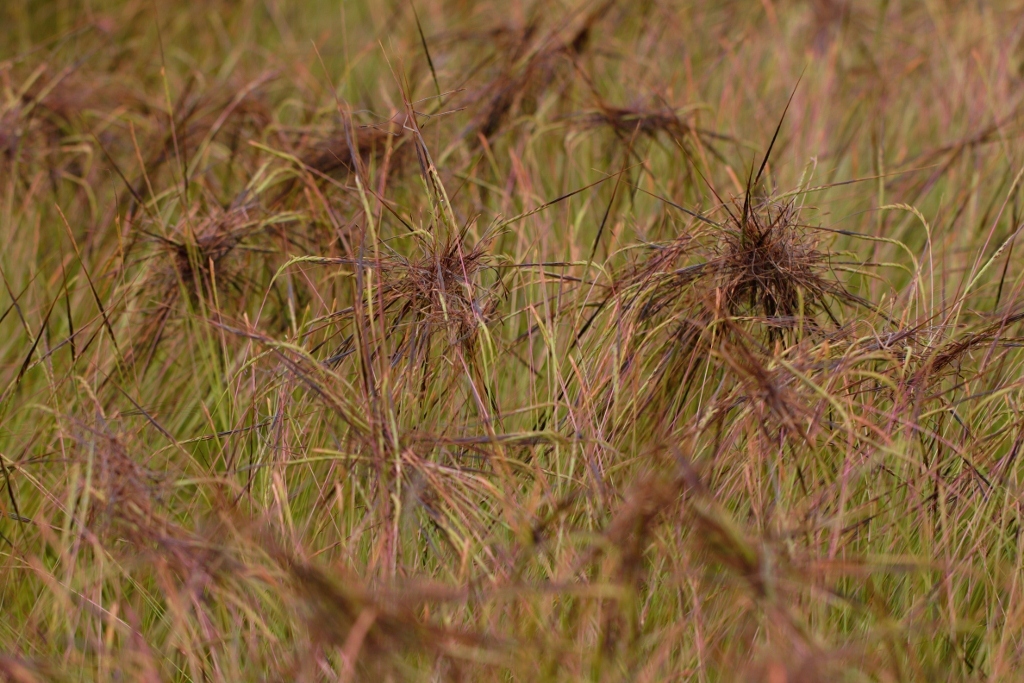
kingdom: Plantae
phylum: Tracheophyta
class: Liliopsida
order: Poales
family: Poaceae
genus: Heteropogon
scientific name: Heteropogon contortus
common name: Tanglehead
